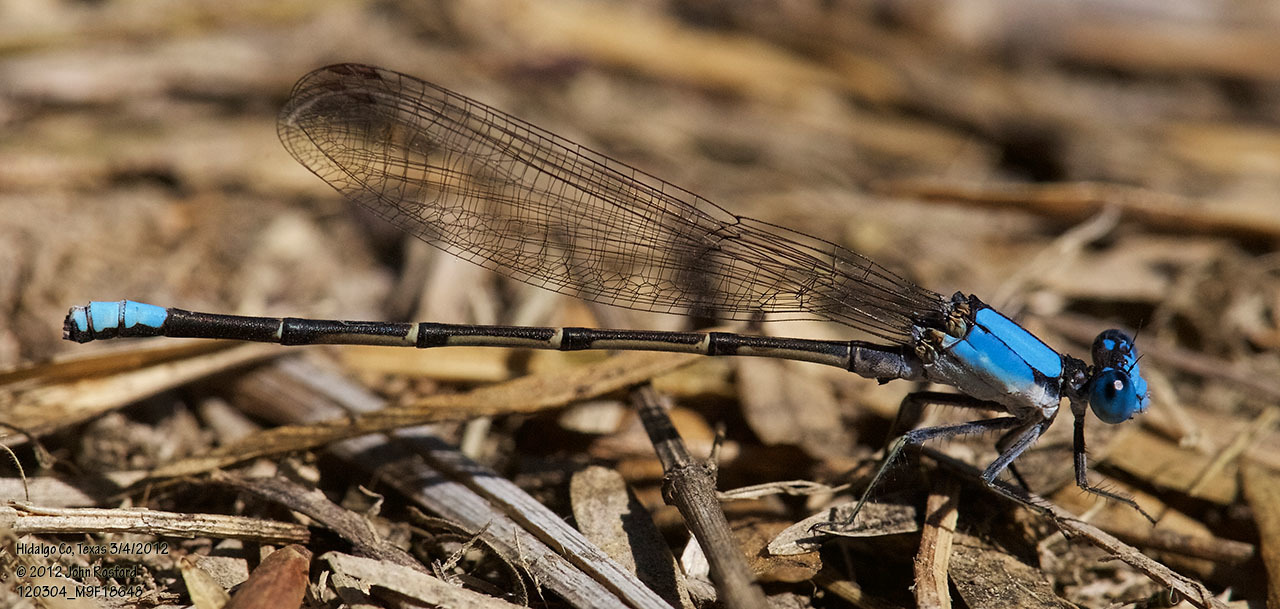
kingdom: Animalia
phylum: Arthropoda
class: Insecta
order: Odonata
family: Coenagrionidae
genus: Argia
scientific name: Argia apicalis
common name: Blue-fronted dancer
